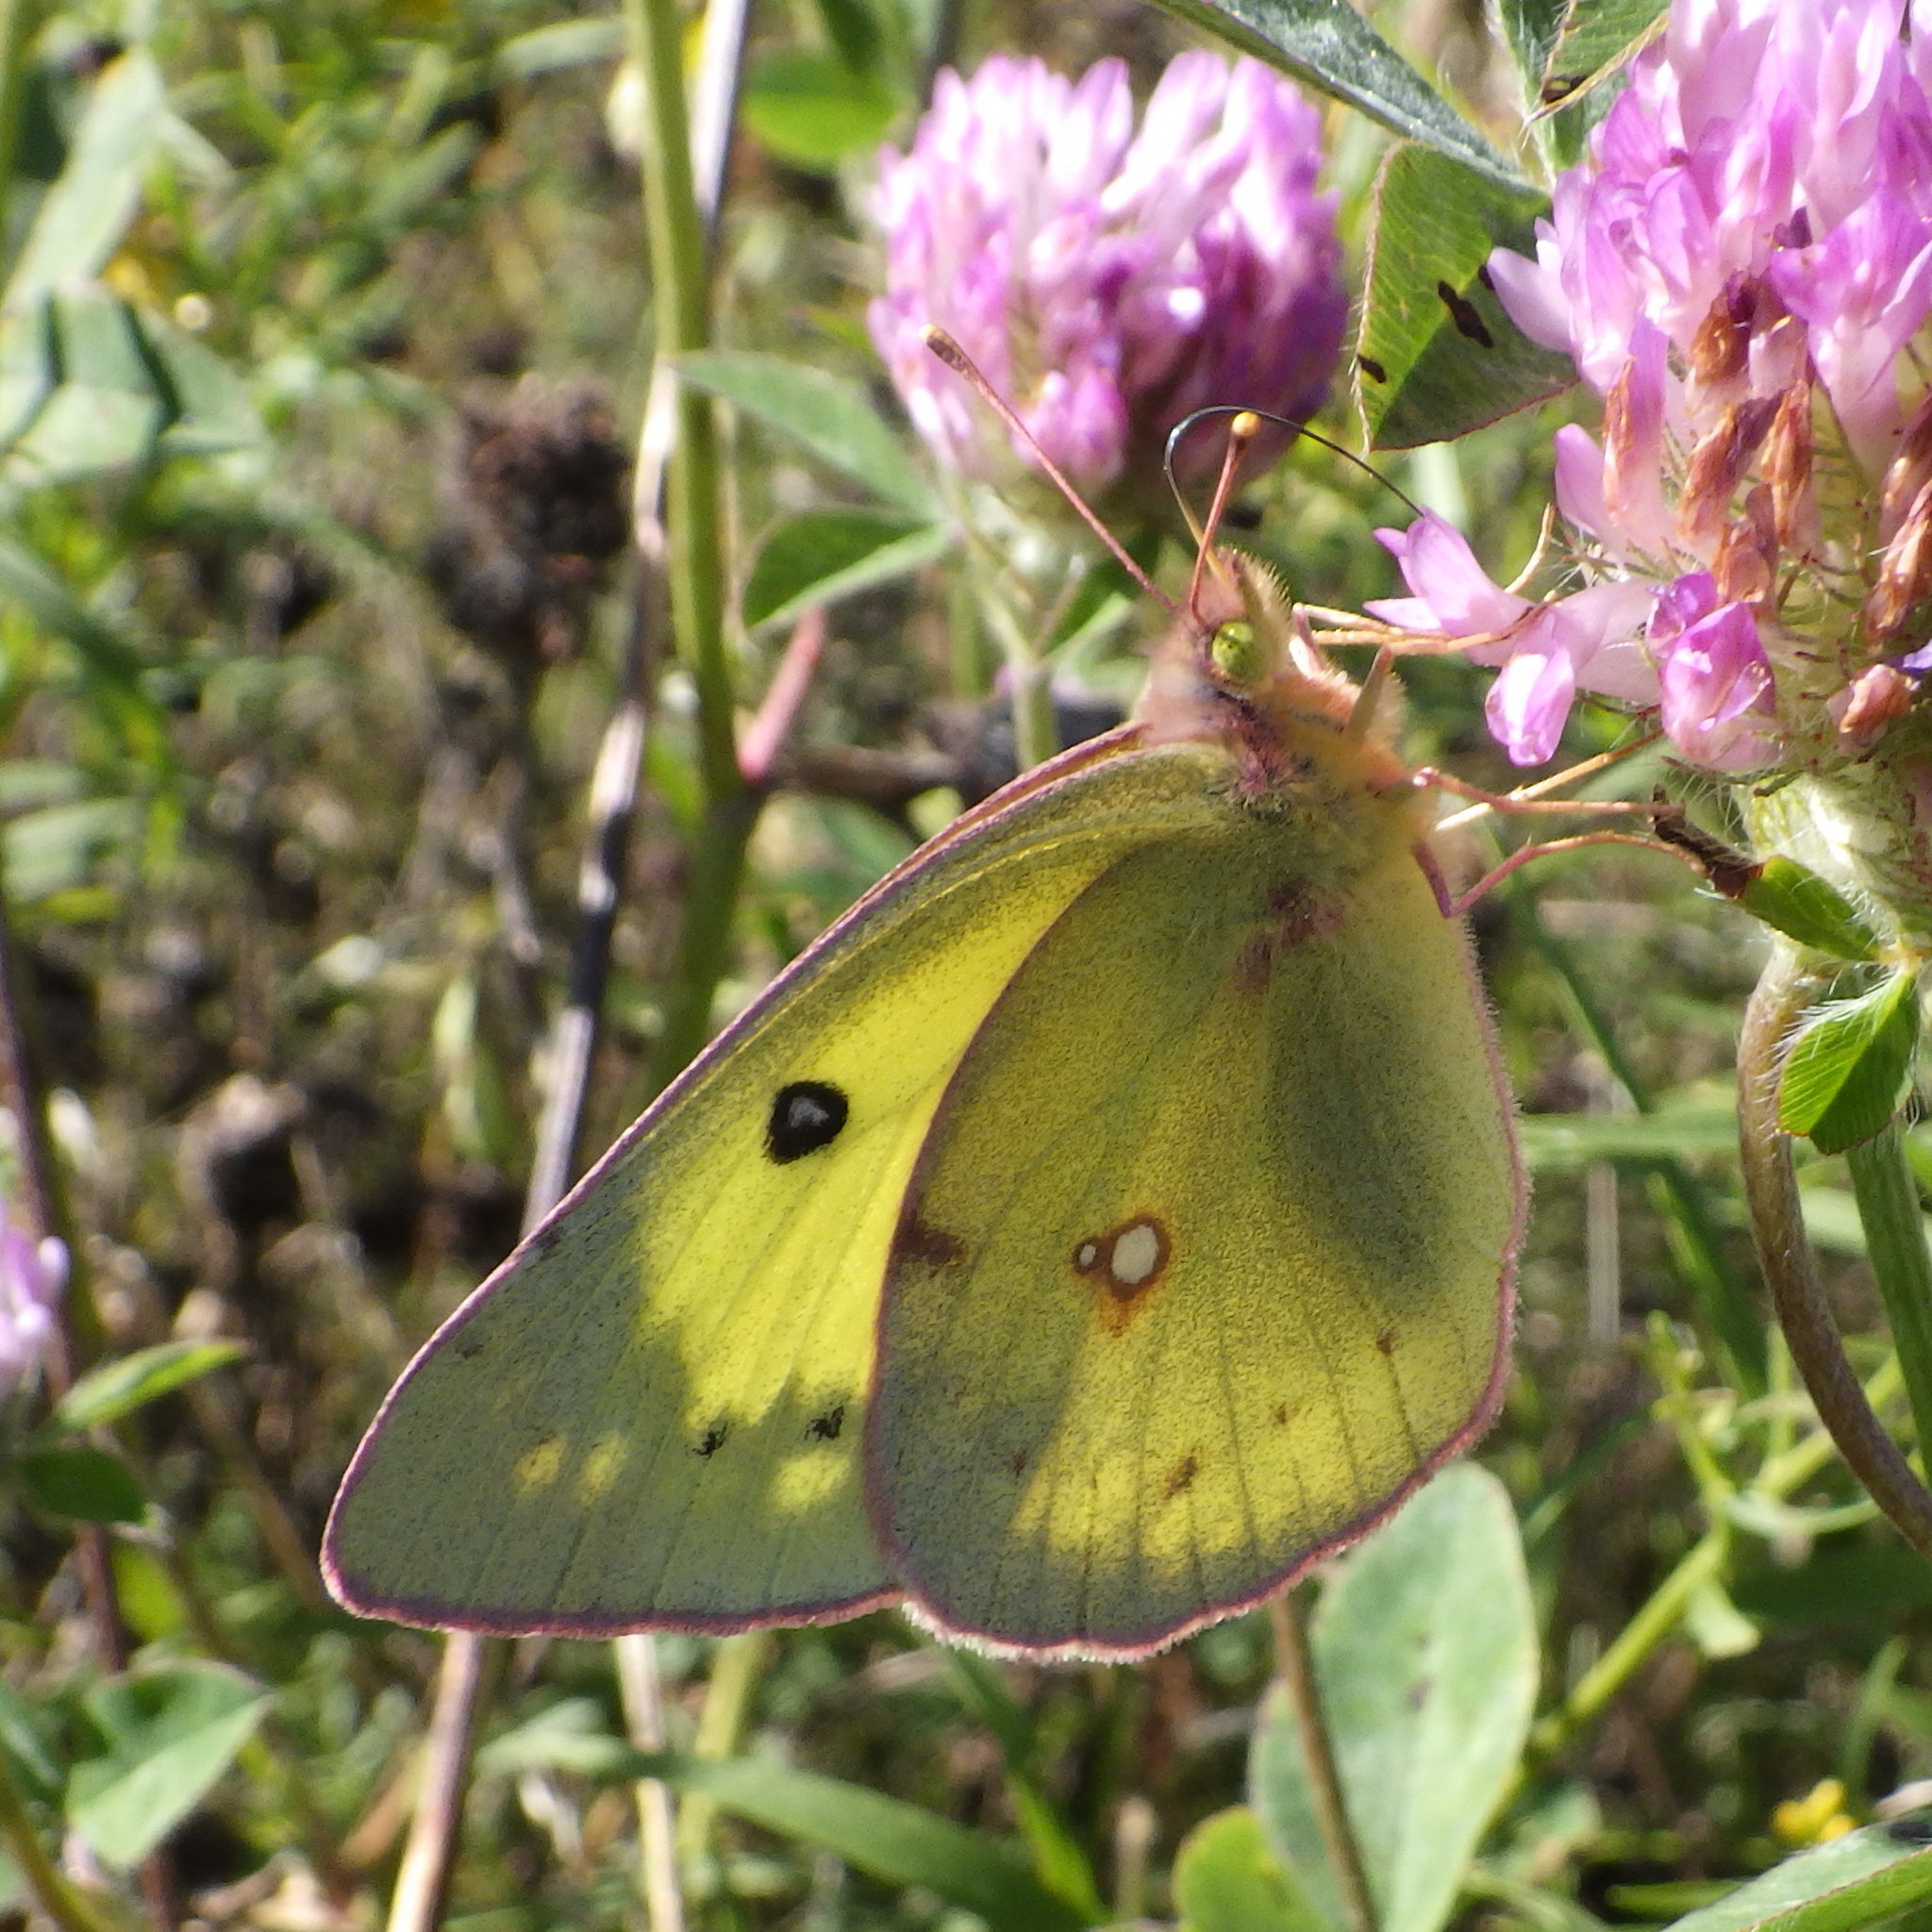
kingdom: Animalia
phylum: Arthropoda
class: Insecta
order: Lepidoptera
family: Pieridae
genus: Colias
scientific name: Colias philodice
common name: Clouded sulphur
